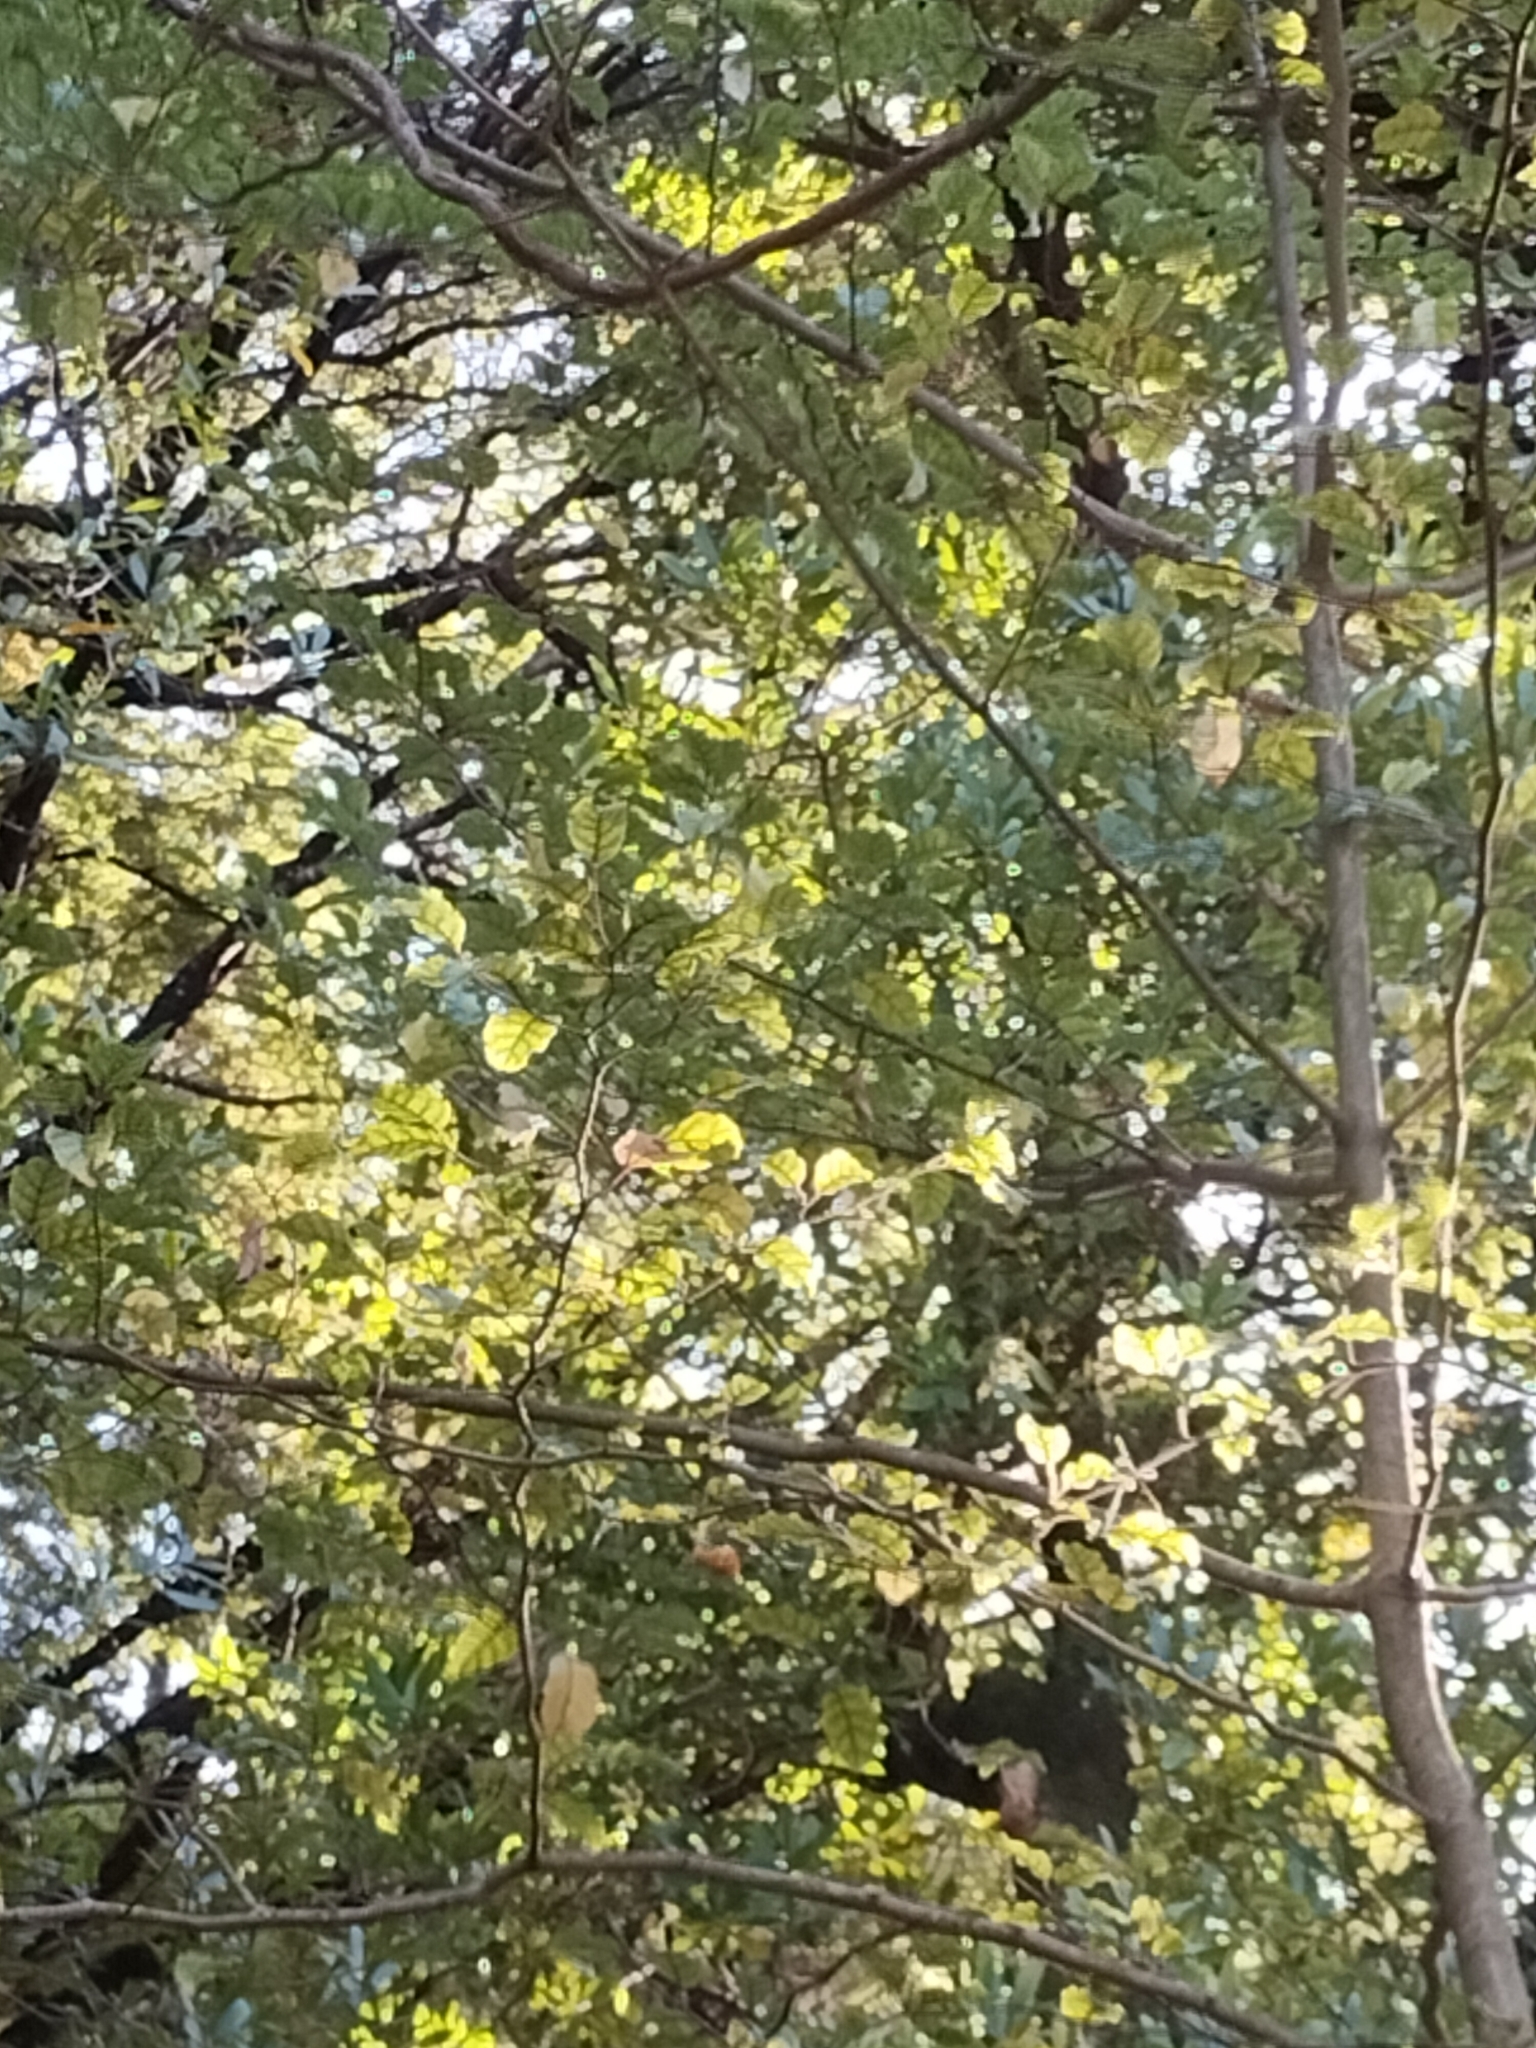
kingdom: Plantae
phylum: Tracheophyta
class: Magnoliopsida
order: Asterales
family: Rousseaceae
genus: Carpodetus
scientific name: Carpodetus serratus
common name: White mapau
